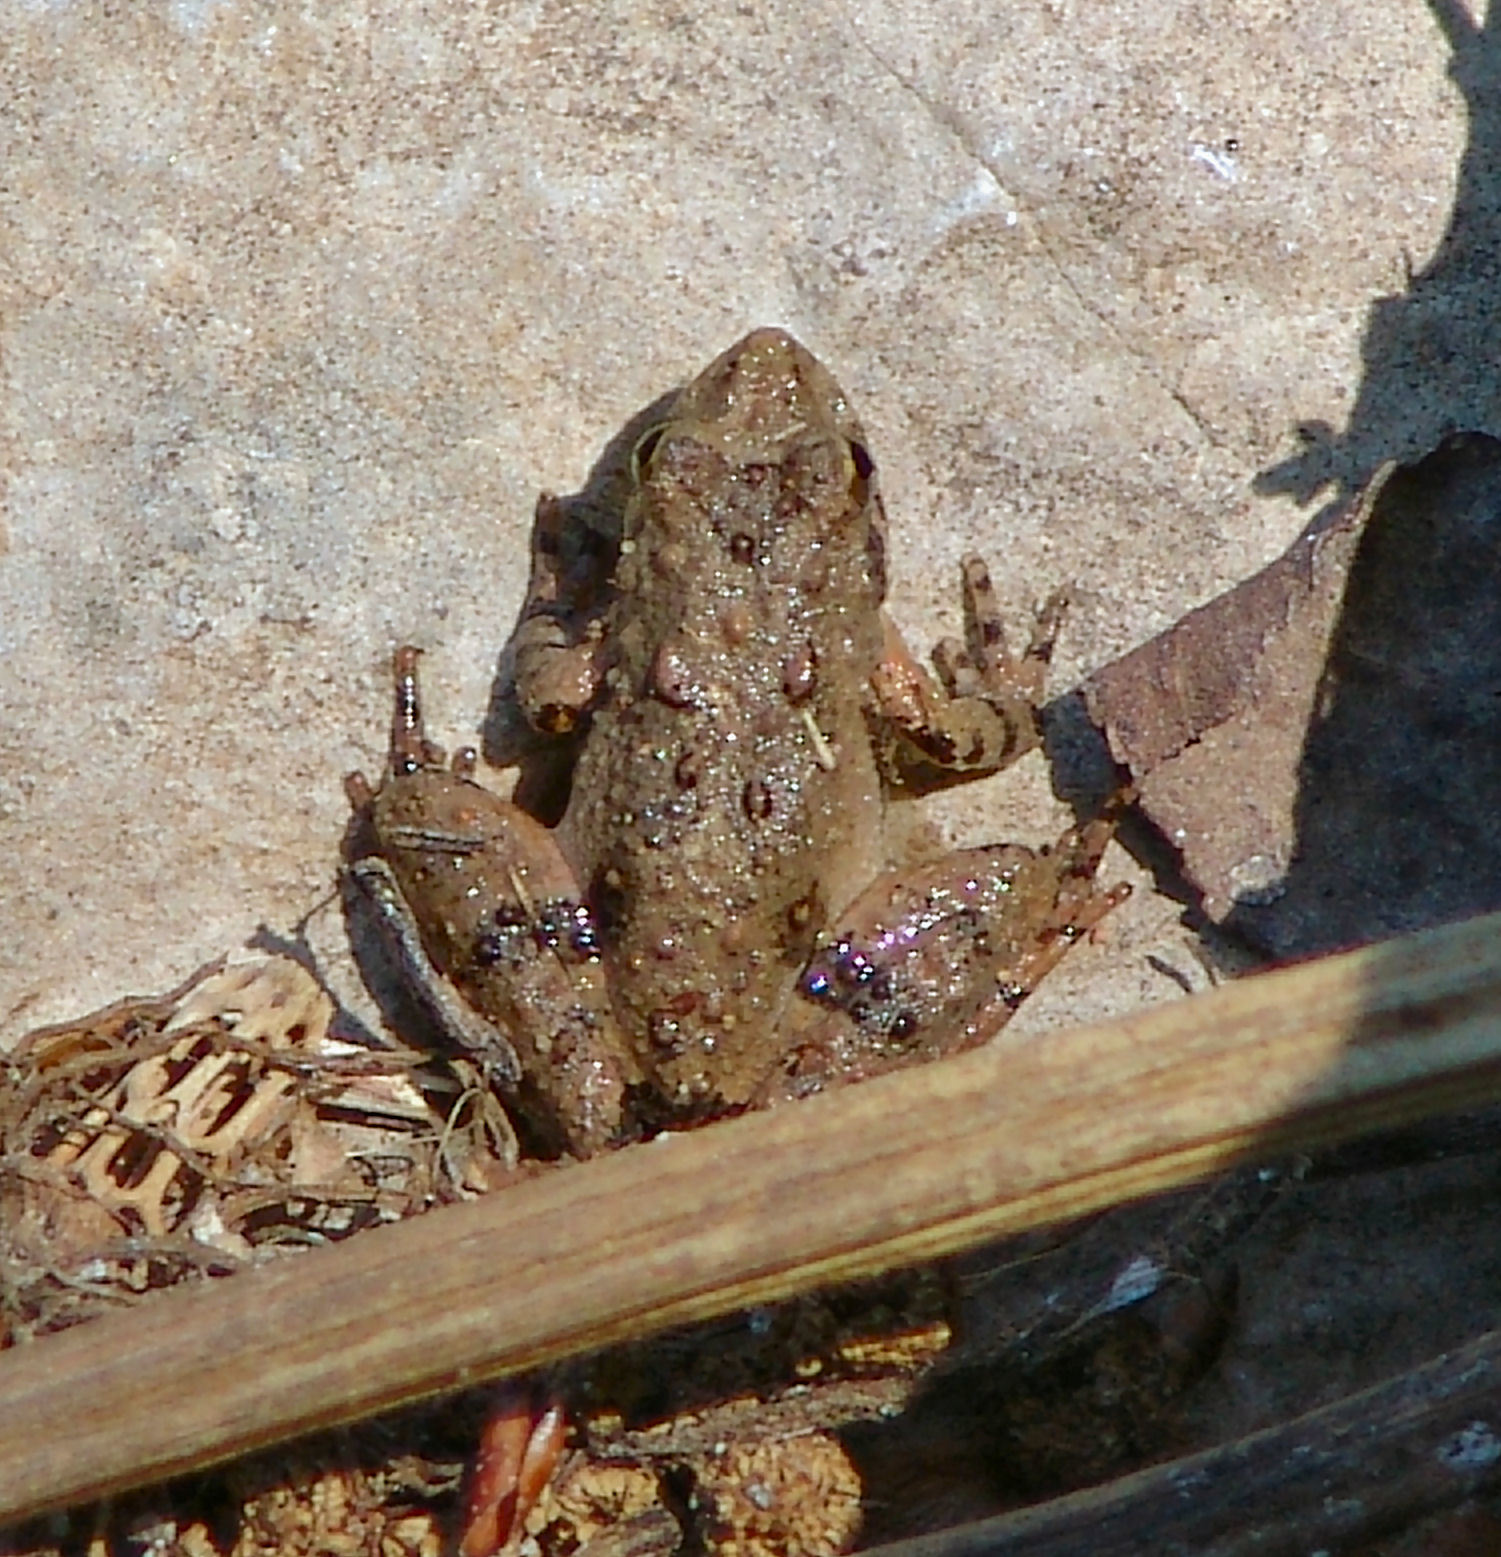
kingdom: Animalia
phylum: Chordata
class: Amphibia
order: Anura
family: Hylidae
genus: Acris
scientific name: Acris blanchardi
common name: Blanchard's cricket frog
